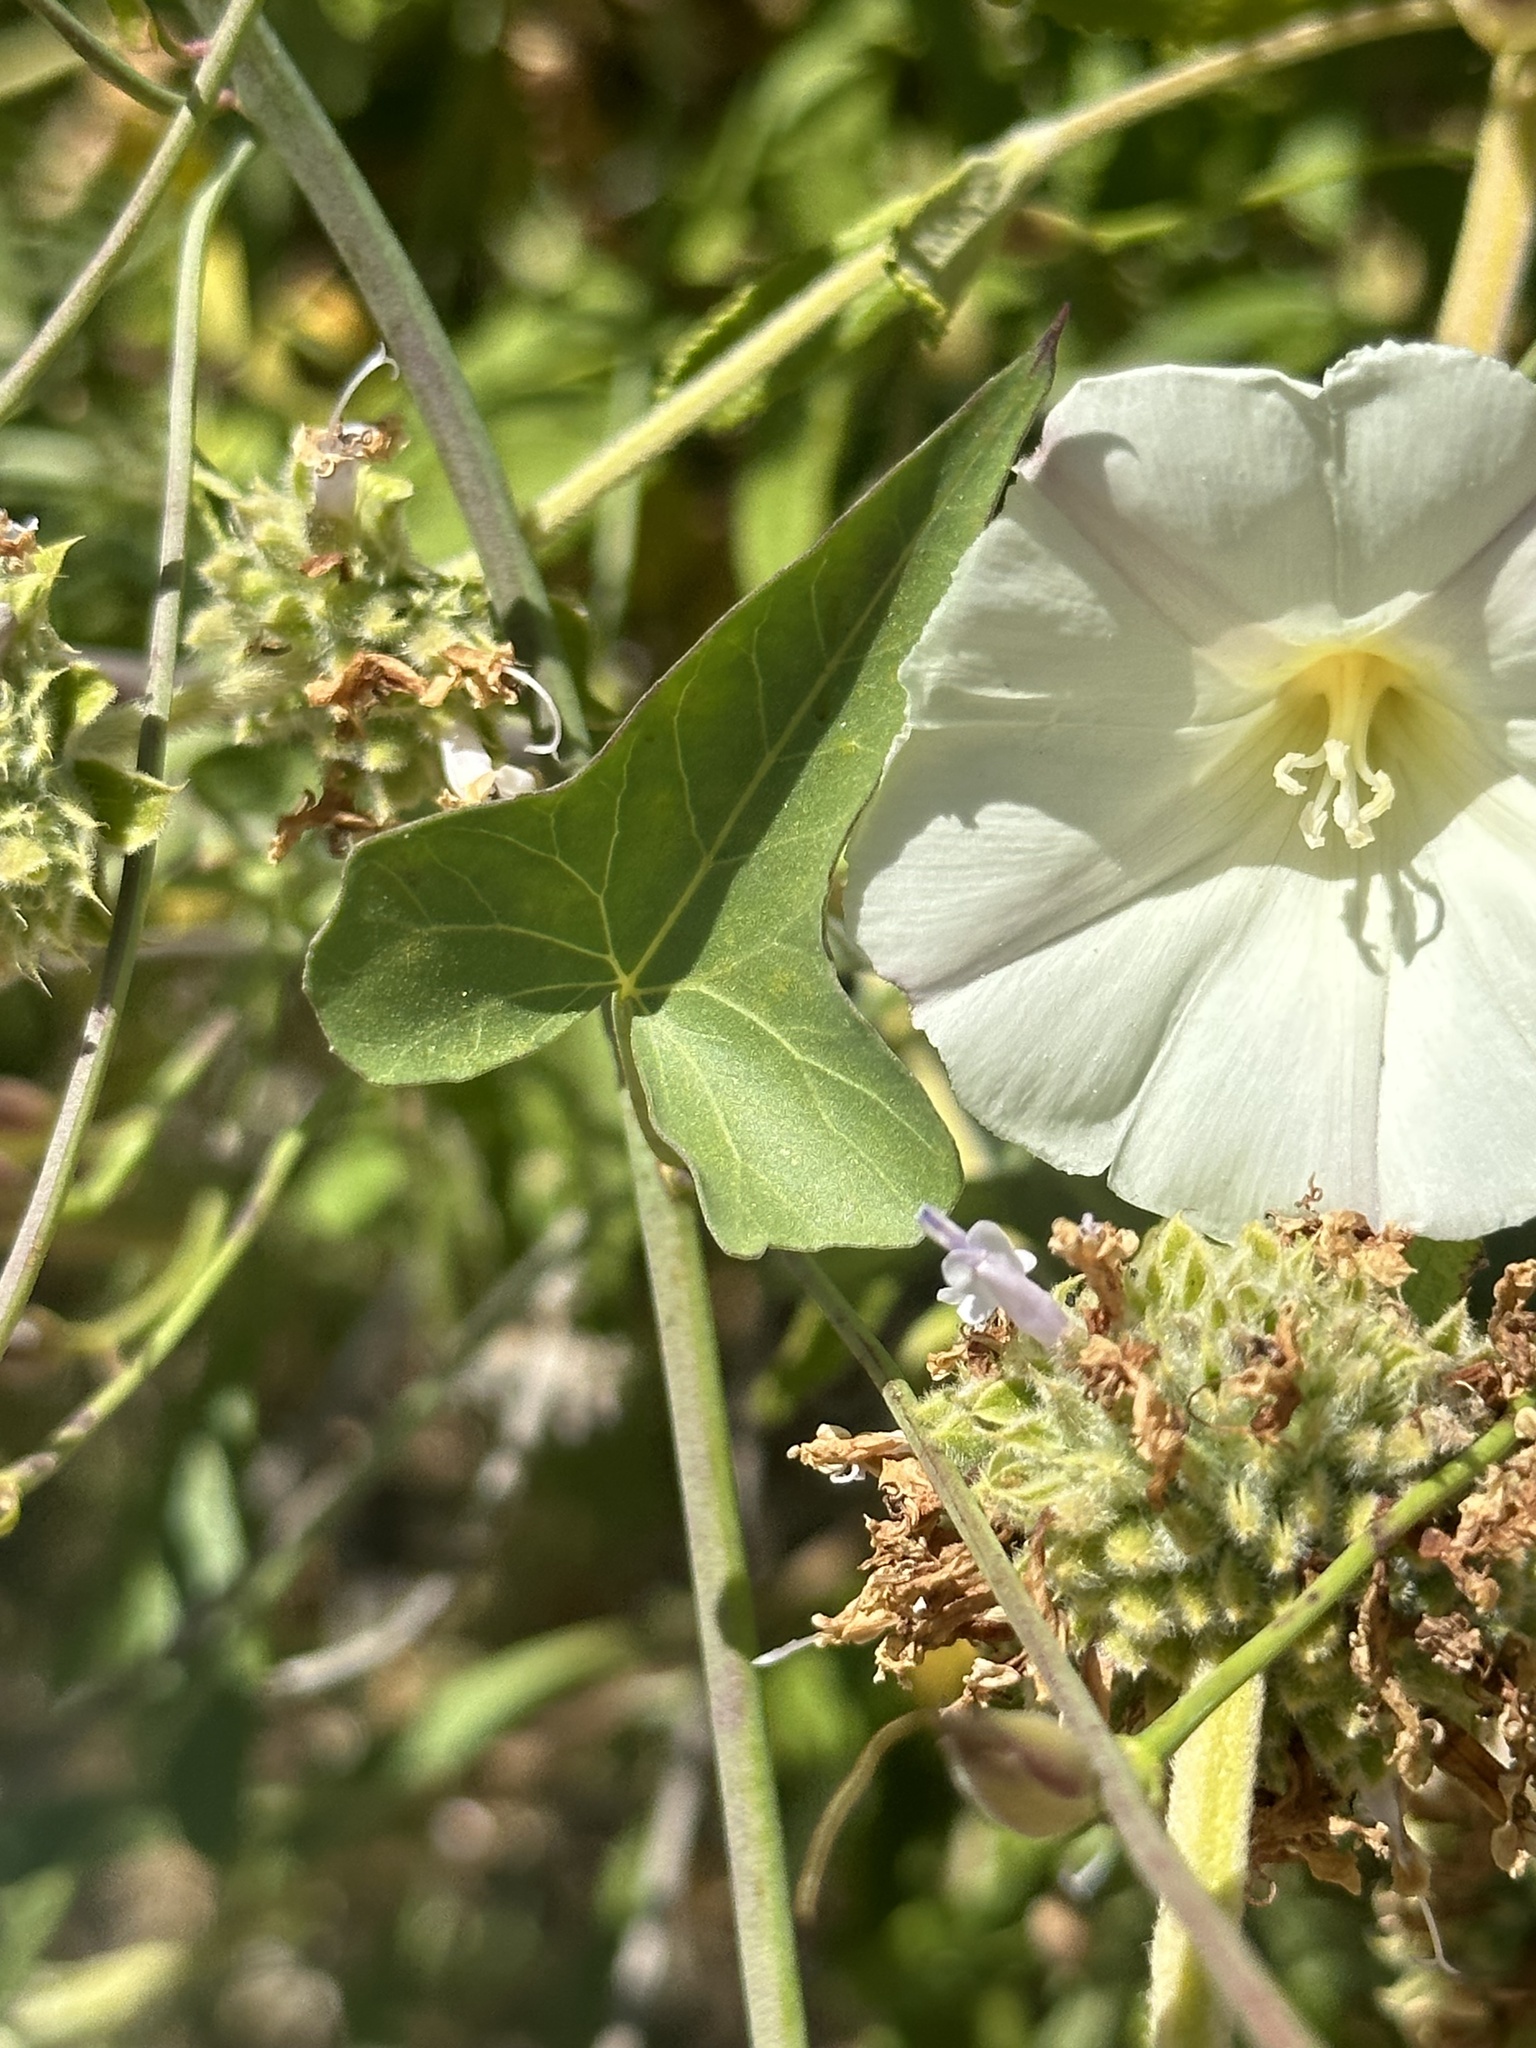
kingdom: Plantae
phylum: Tracheophyta
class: Magnoliopsida
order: Solanales
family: Convolvulaceae
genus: Calystegia
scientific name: Calystegia purpurata
